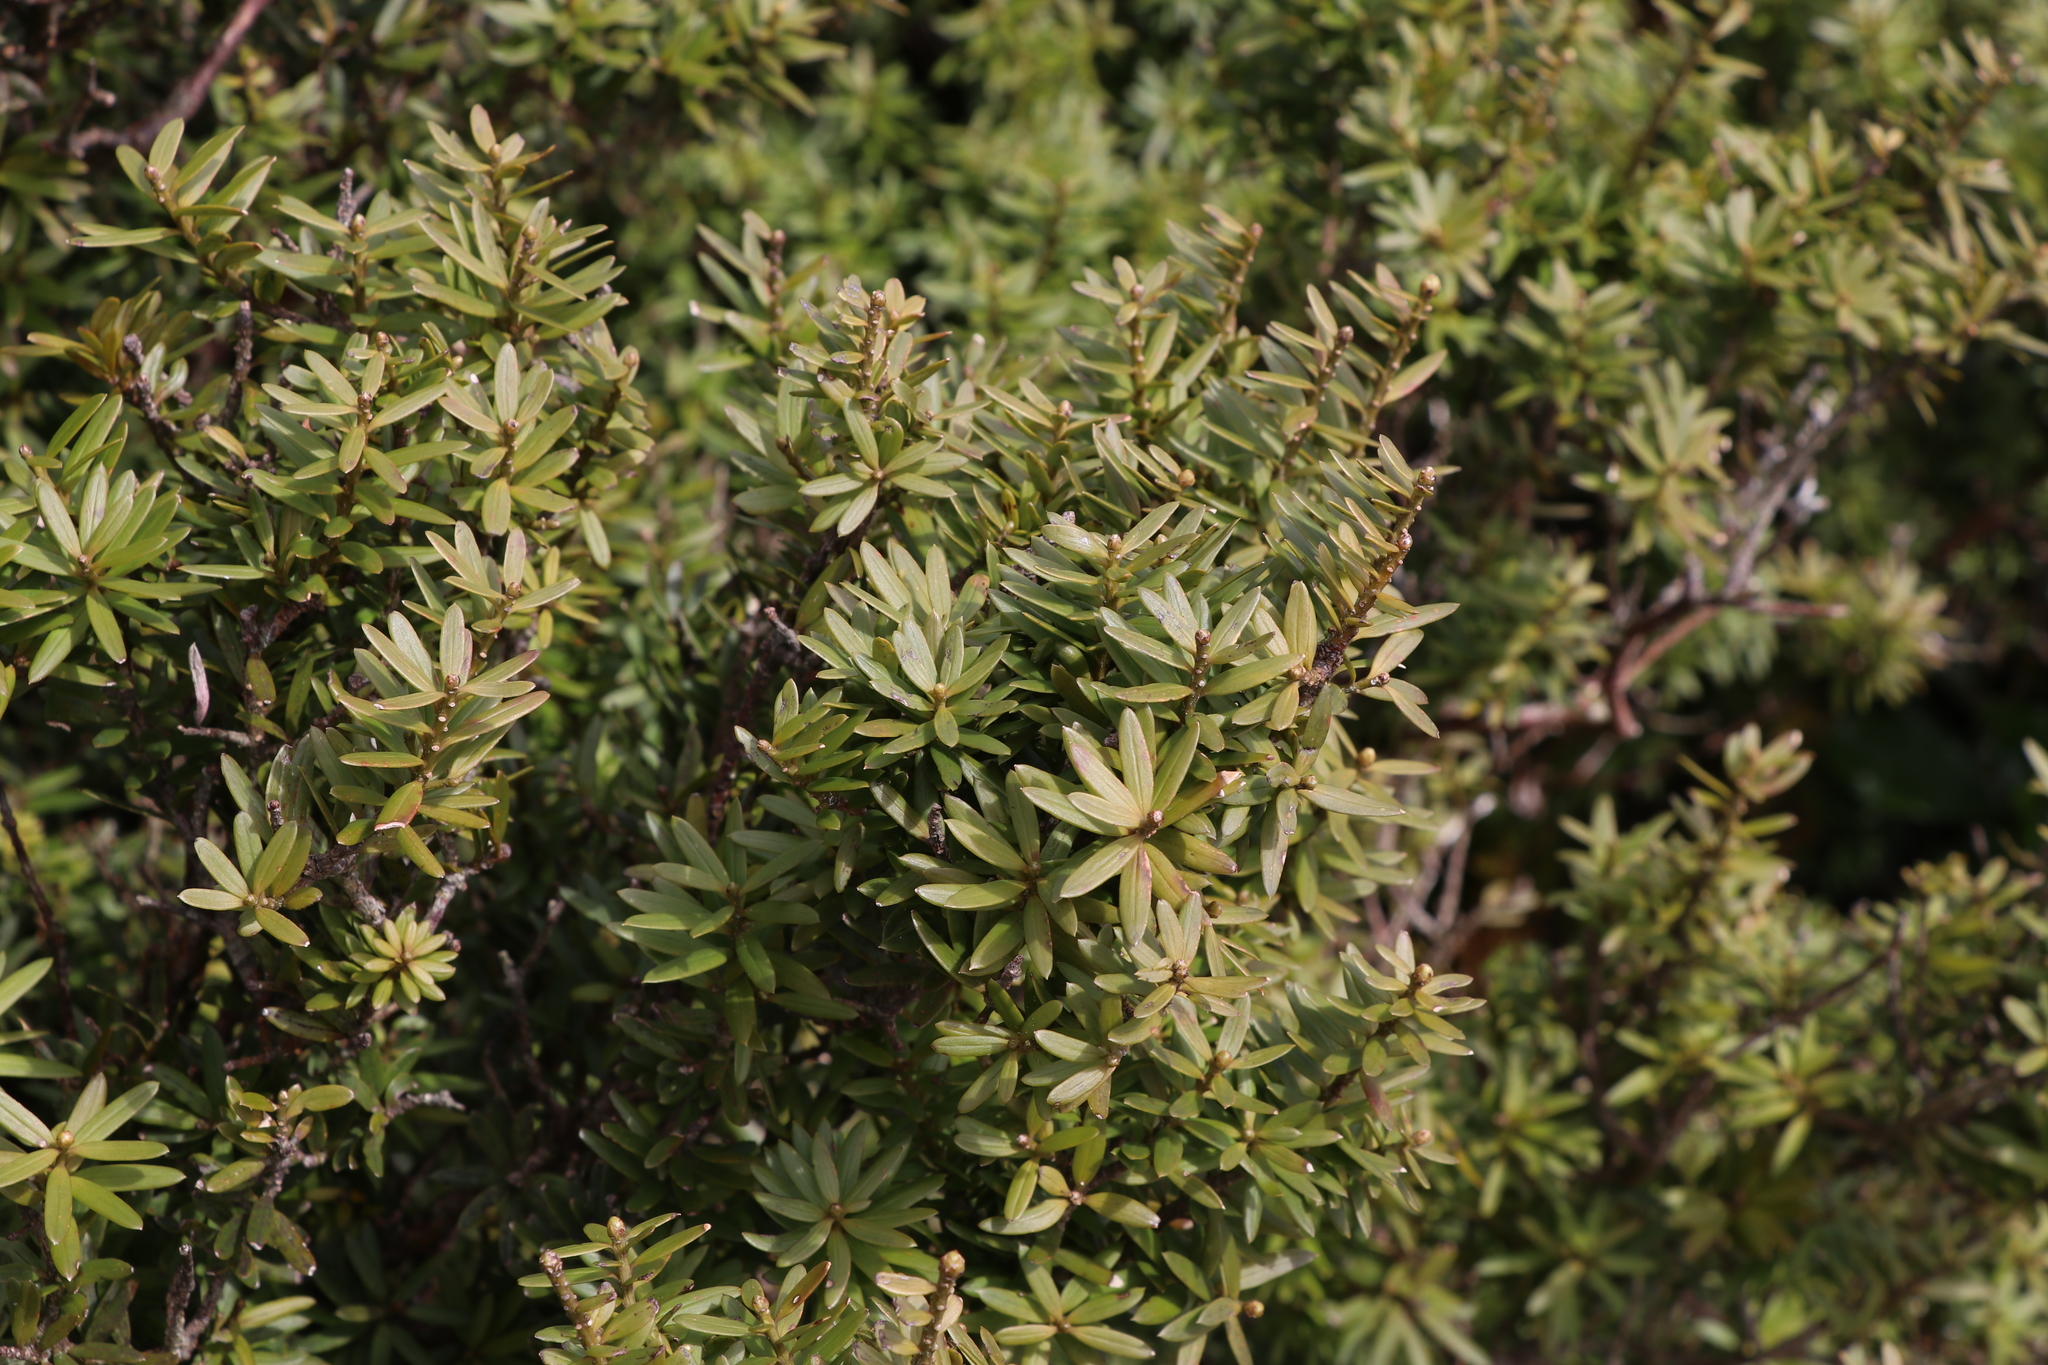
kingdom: Plantae
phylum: Tracheophyta
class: Pinopsida
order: Pinales
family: Podocarpaceae
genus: Podocarpus
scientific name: Podocarpus laetus
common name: Hall's totara
